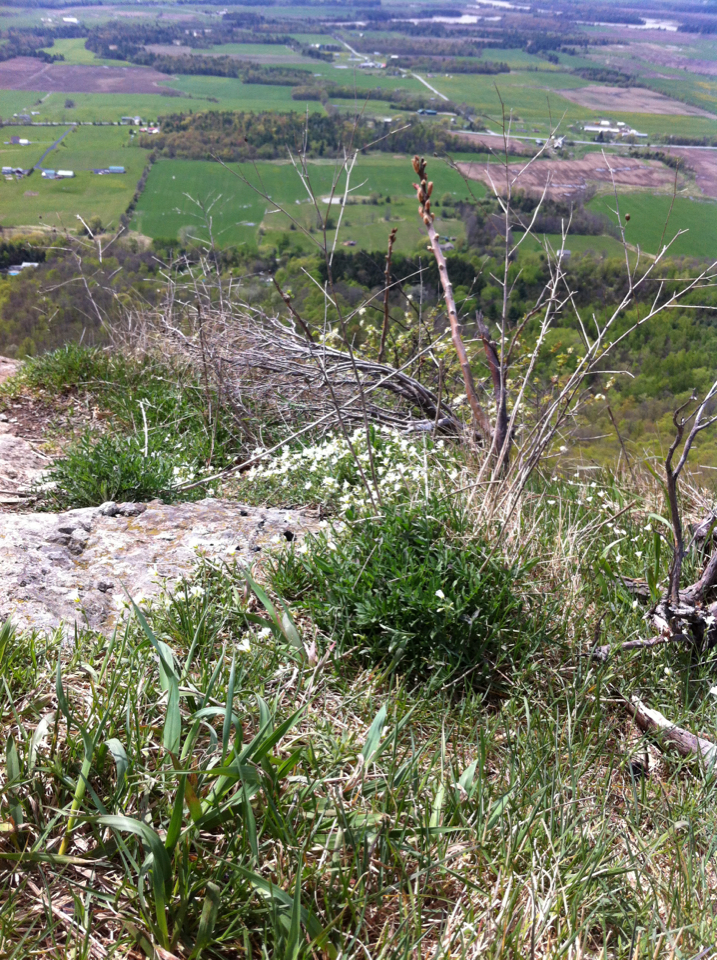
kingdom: Plantae
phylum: Tracheophyta
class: Magnoliopsida
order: Sapindales
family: Anacardiaceae
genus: Rhus
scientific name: Rhus typhina
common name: Staghorn sumac
